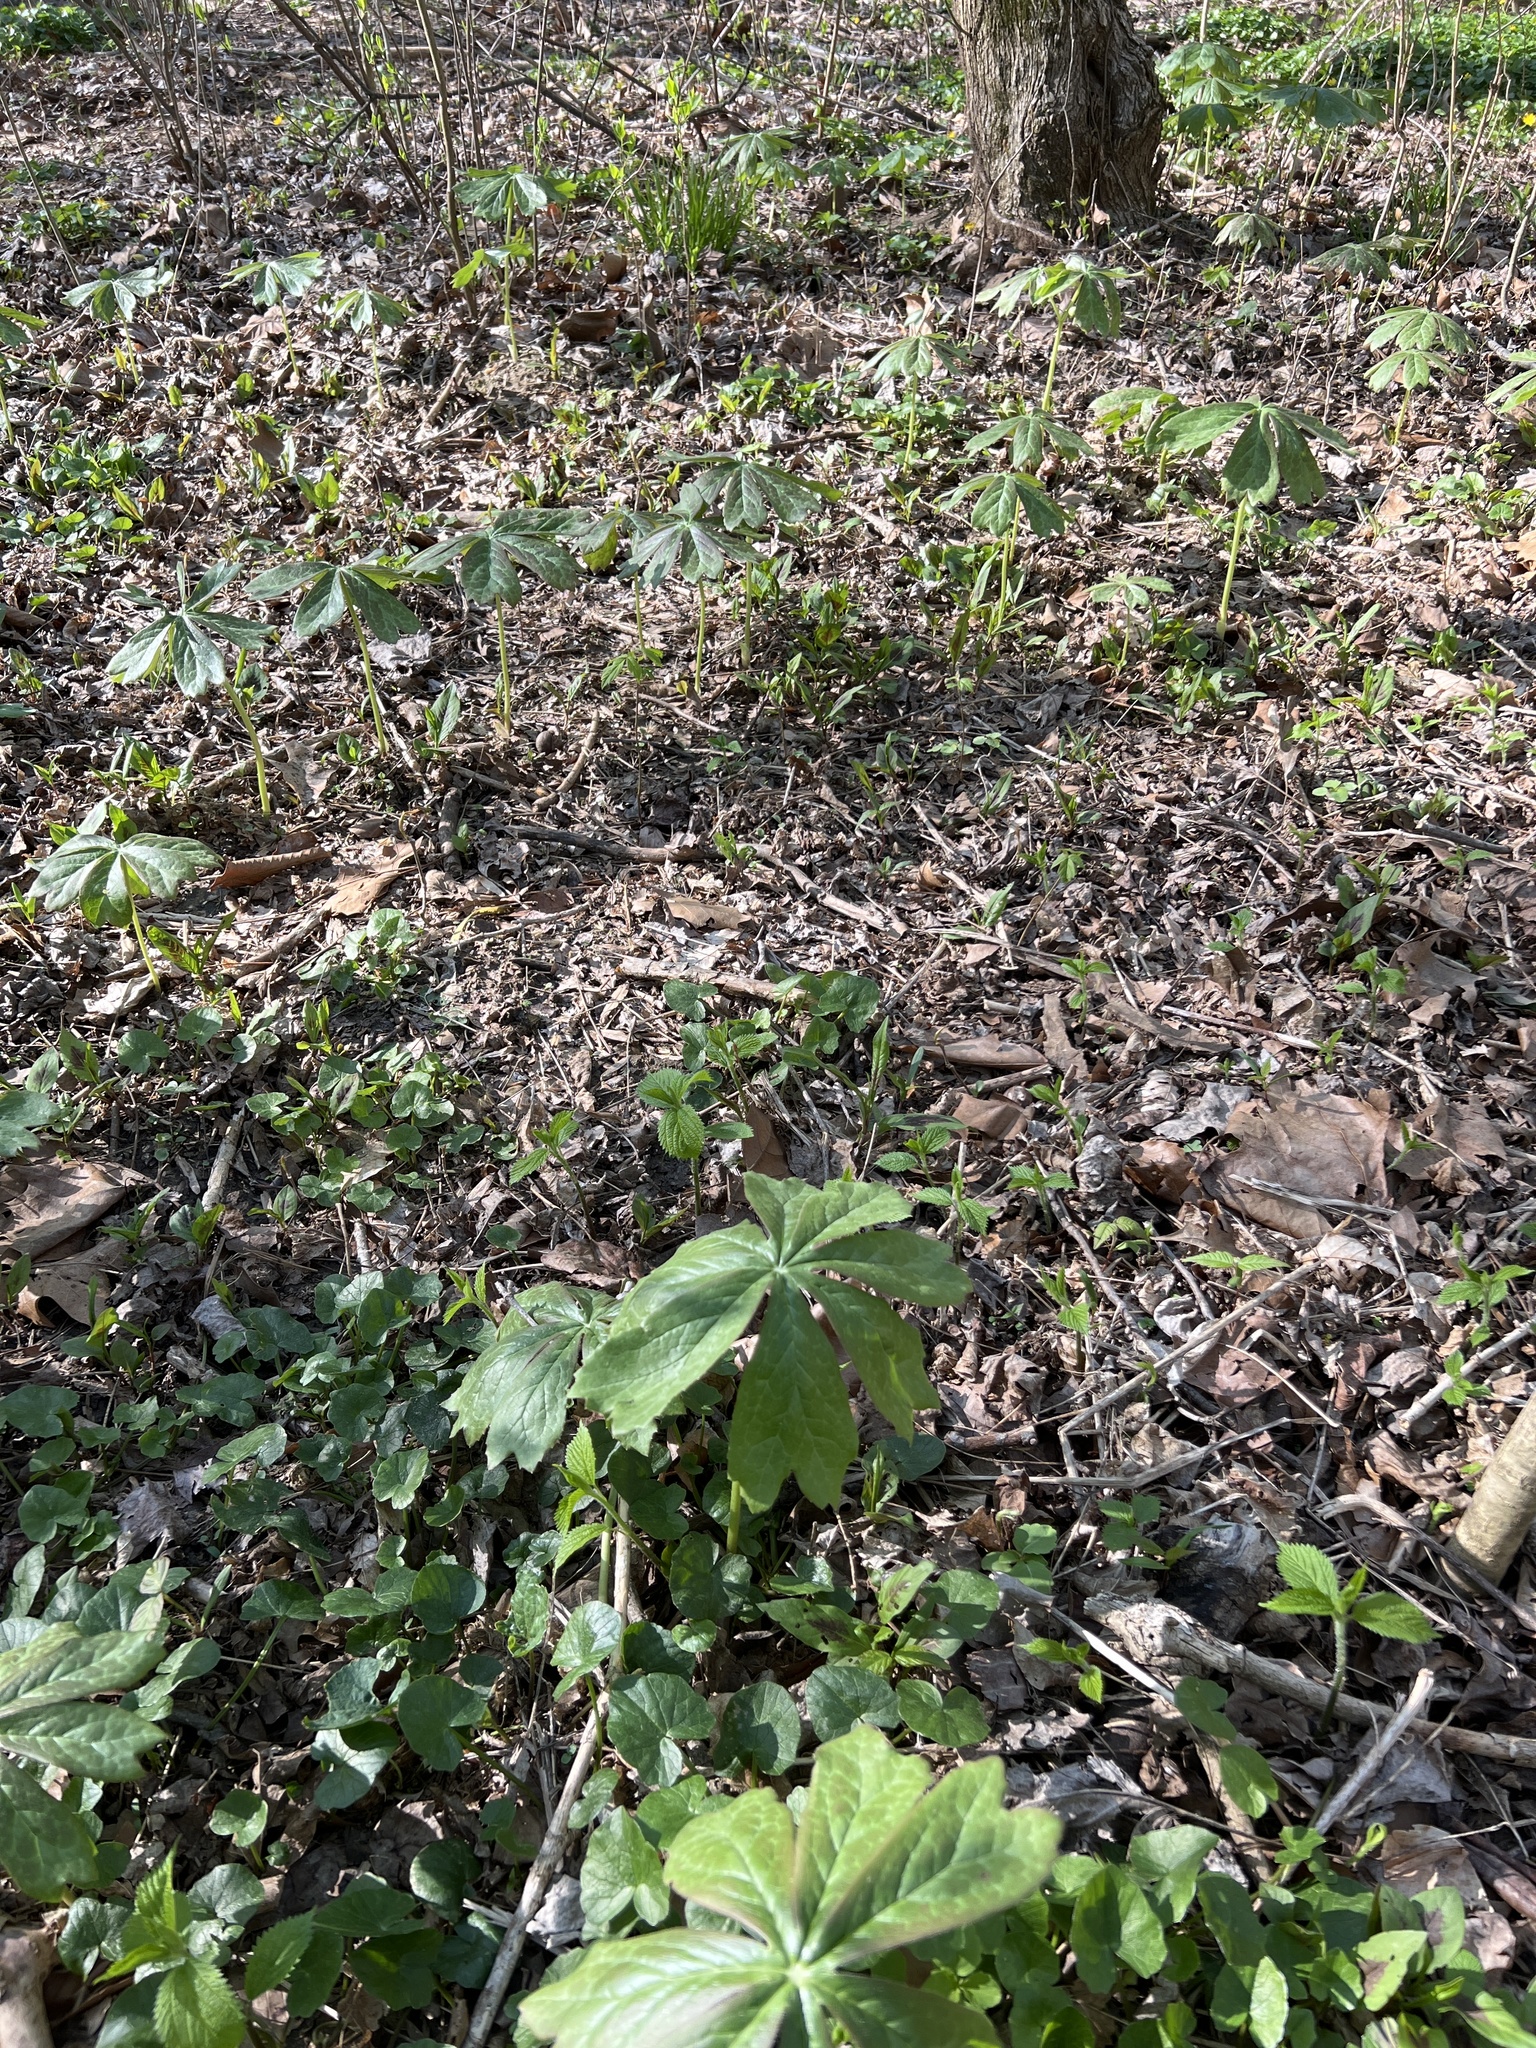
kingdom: Plantae
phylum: Tracheophyta
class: Magnoliopsida
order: Ranunculales
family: Berberidaceae
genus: Podophyllum
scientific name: Podophyllum peltatum
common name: Wild mandrake
